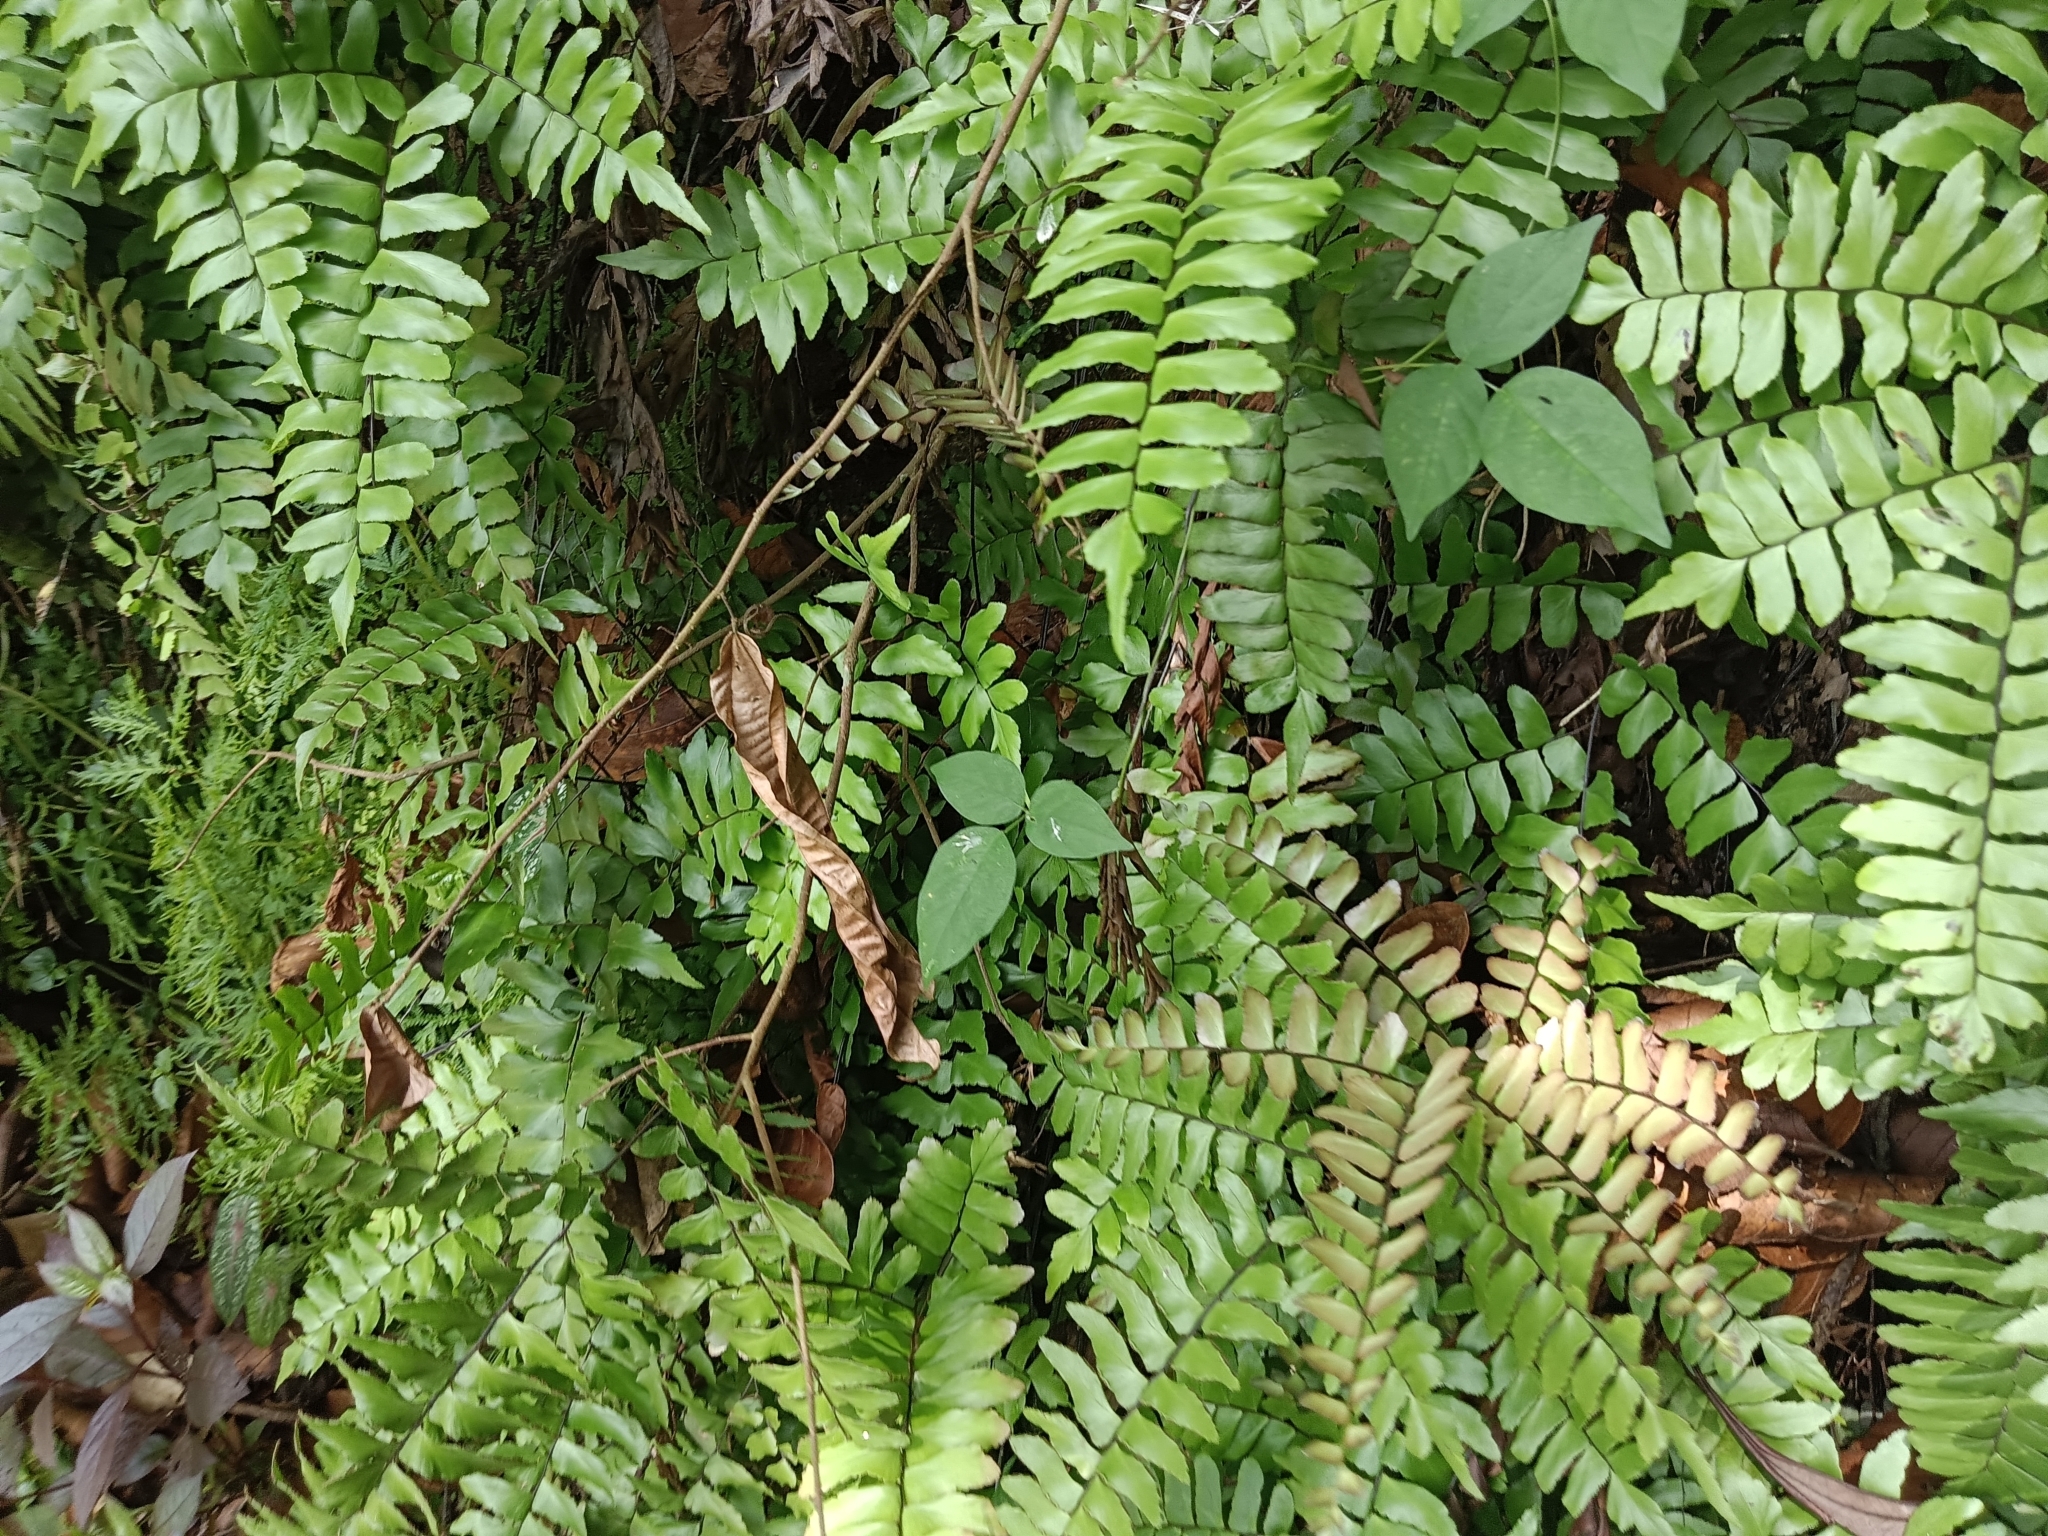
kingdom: Plantae
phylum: Tracheophyta
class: Polypodiopsida
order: Polypodiales
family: Pteridaceae
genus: Adiantum
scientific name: Adiantum latifolium
